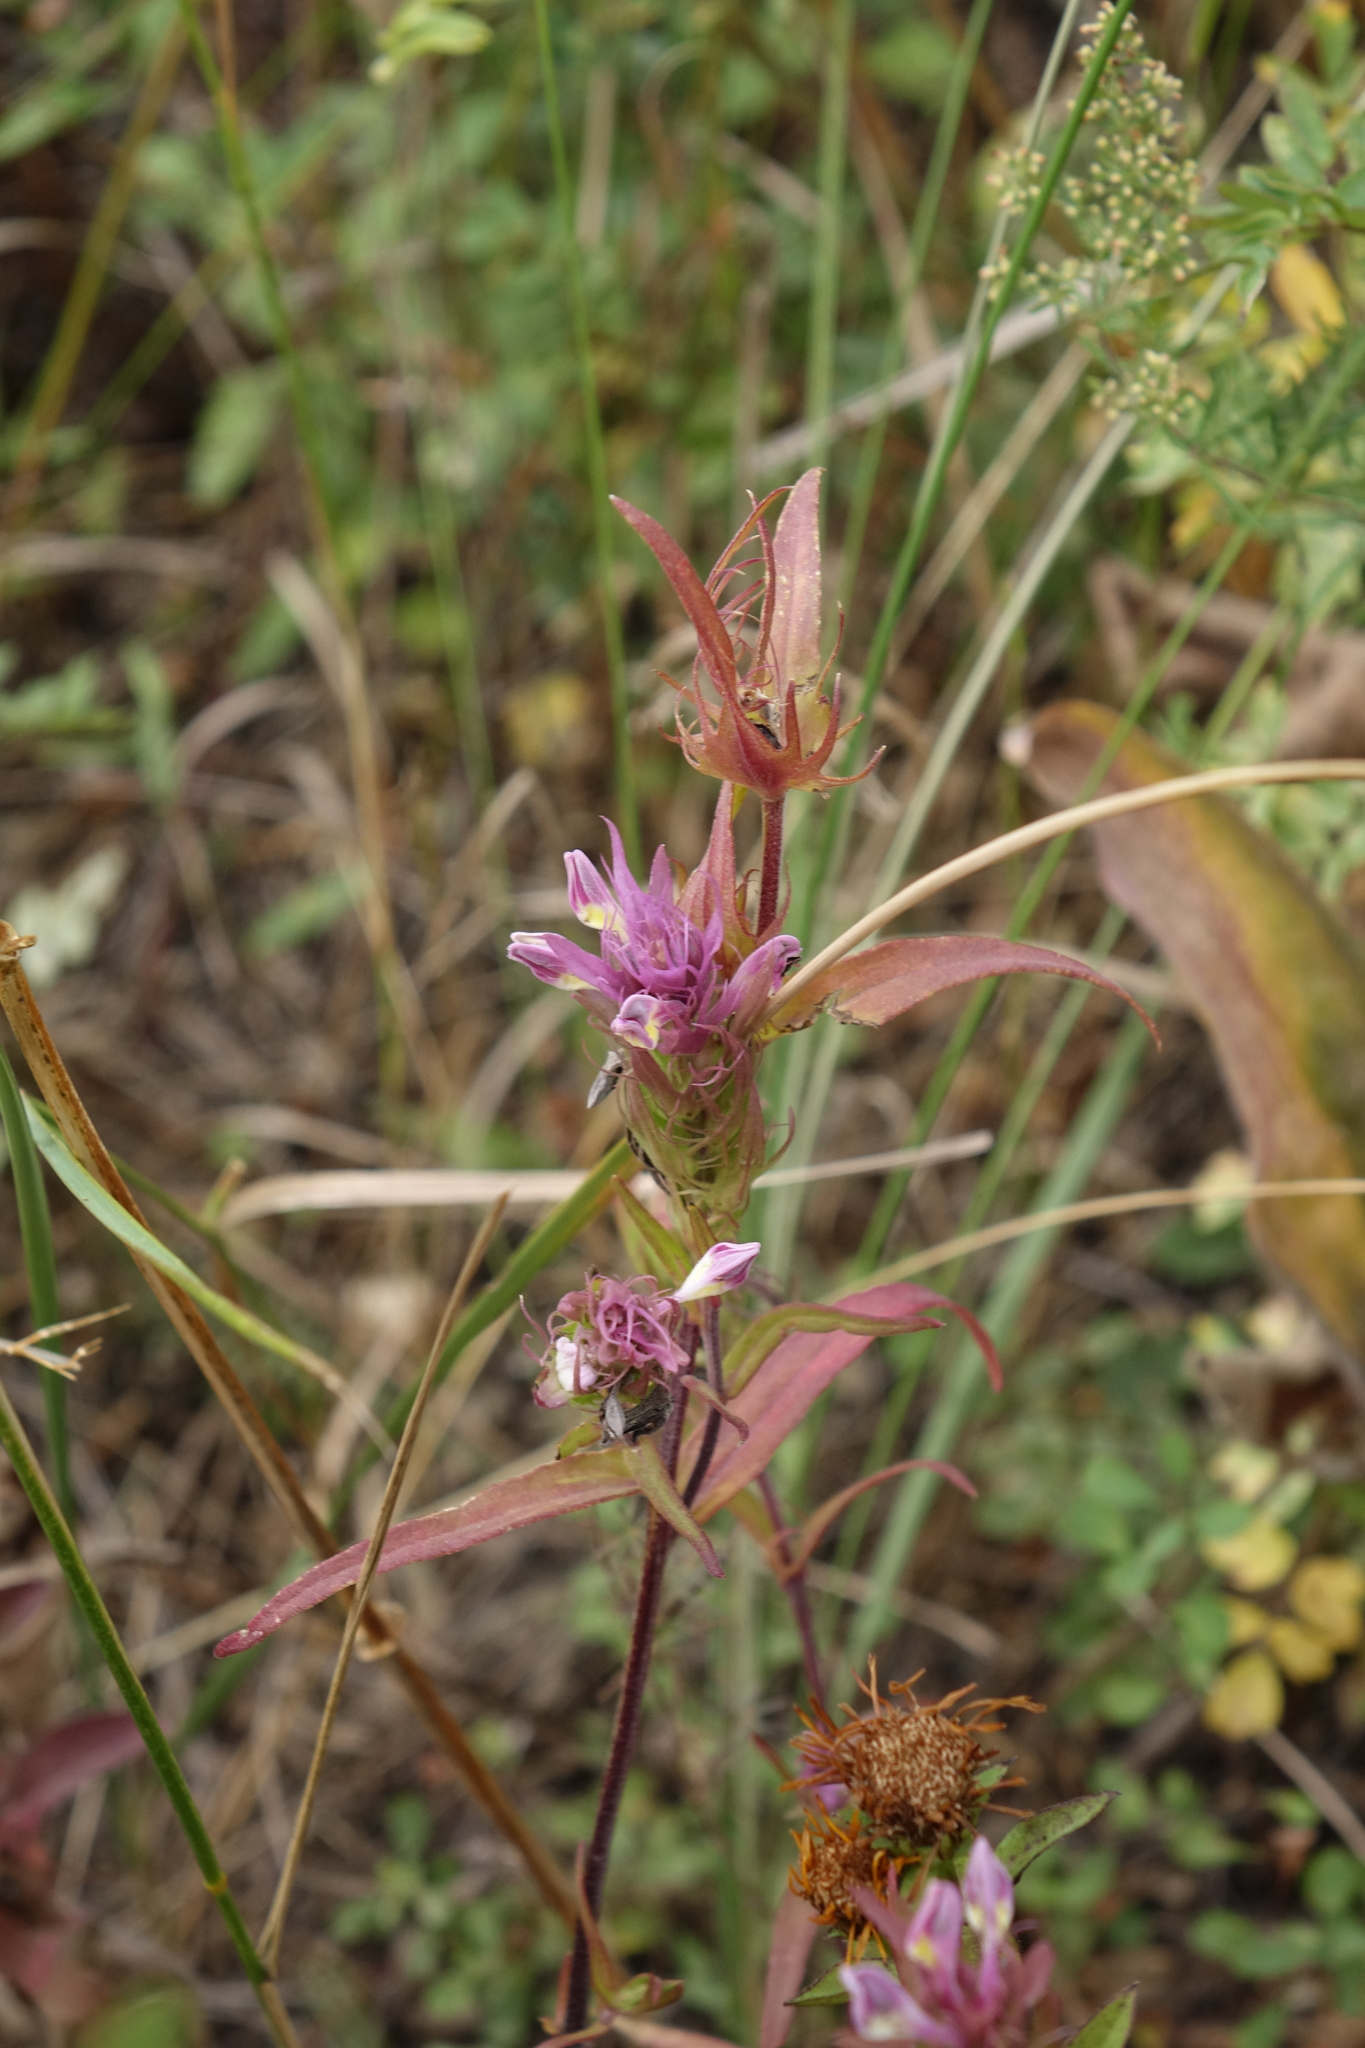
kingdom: Plantae
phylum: Tracheophyta
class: Magnoliopsida
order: Lamiales
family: Orobanchaceae
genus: Melampyrum
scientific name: Melampyrum arvense
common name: Field cow-wheat
